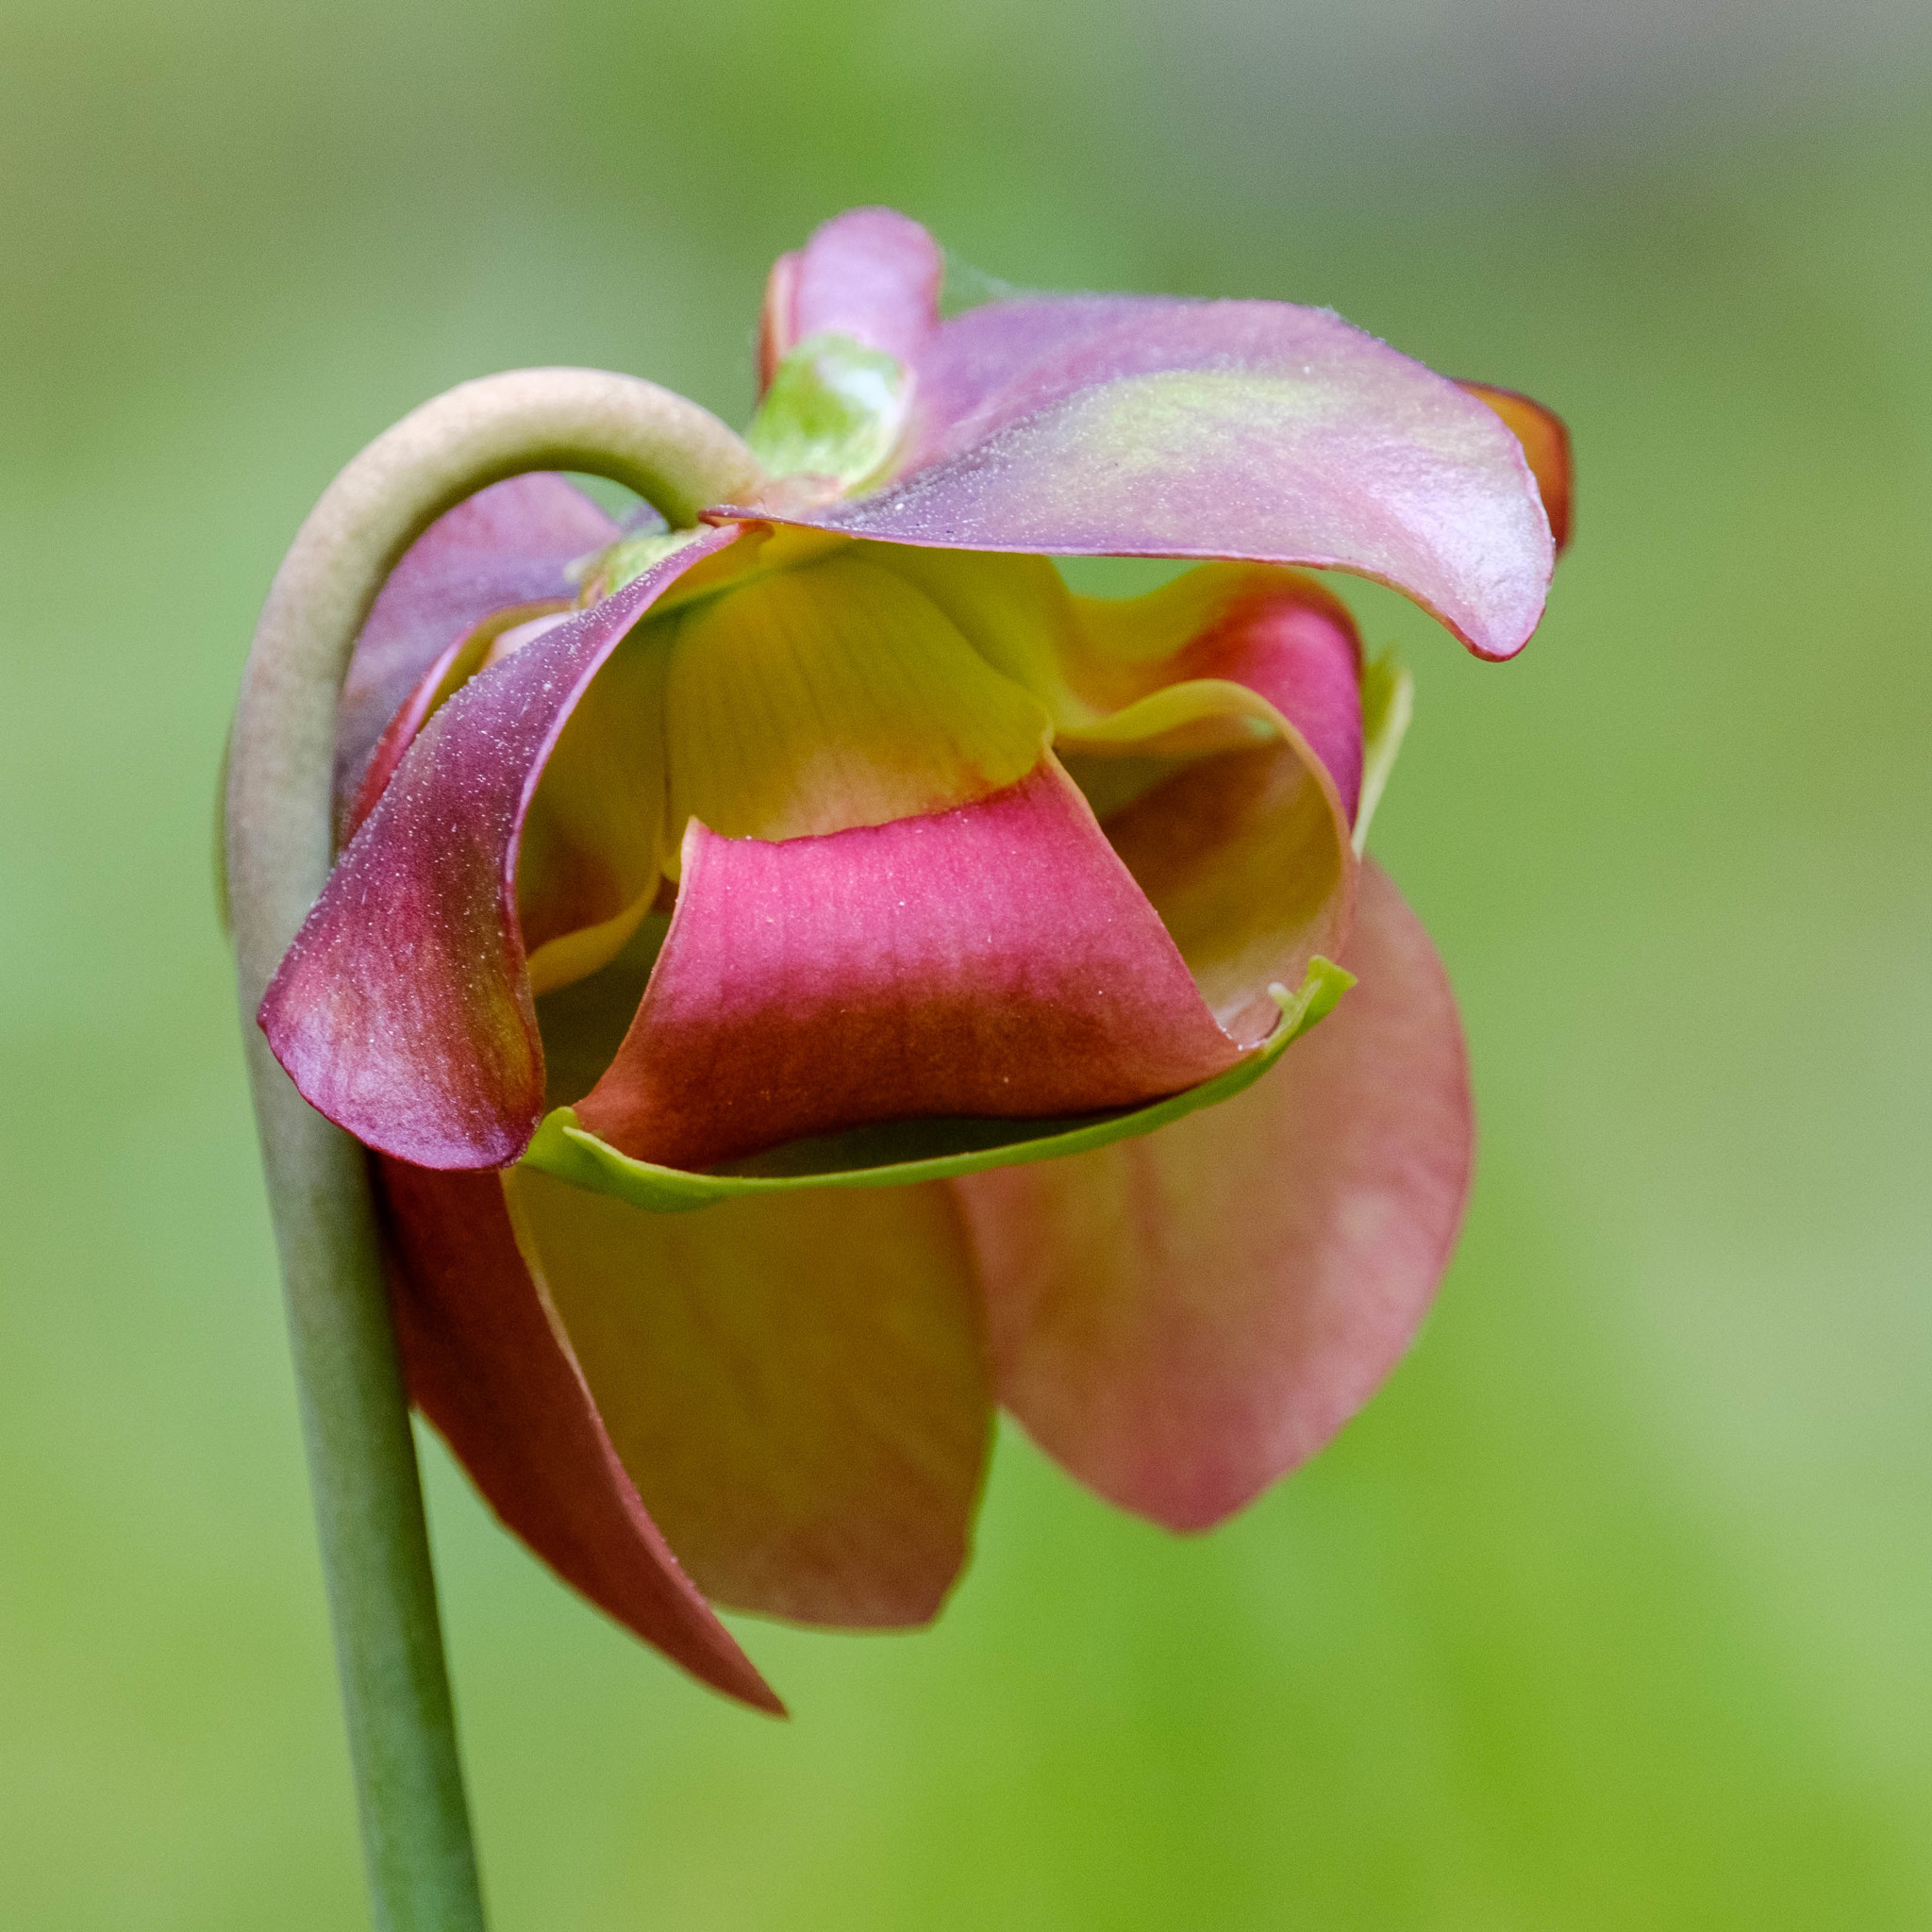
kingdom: Plantae
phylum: Tracheophyta
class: Magnoliopsida
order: Ericales
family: Sarraceniaceae
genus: Sarracenia
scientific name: Sarracenia purpurea
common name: Pitcherplant
